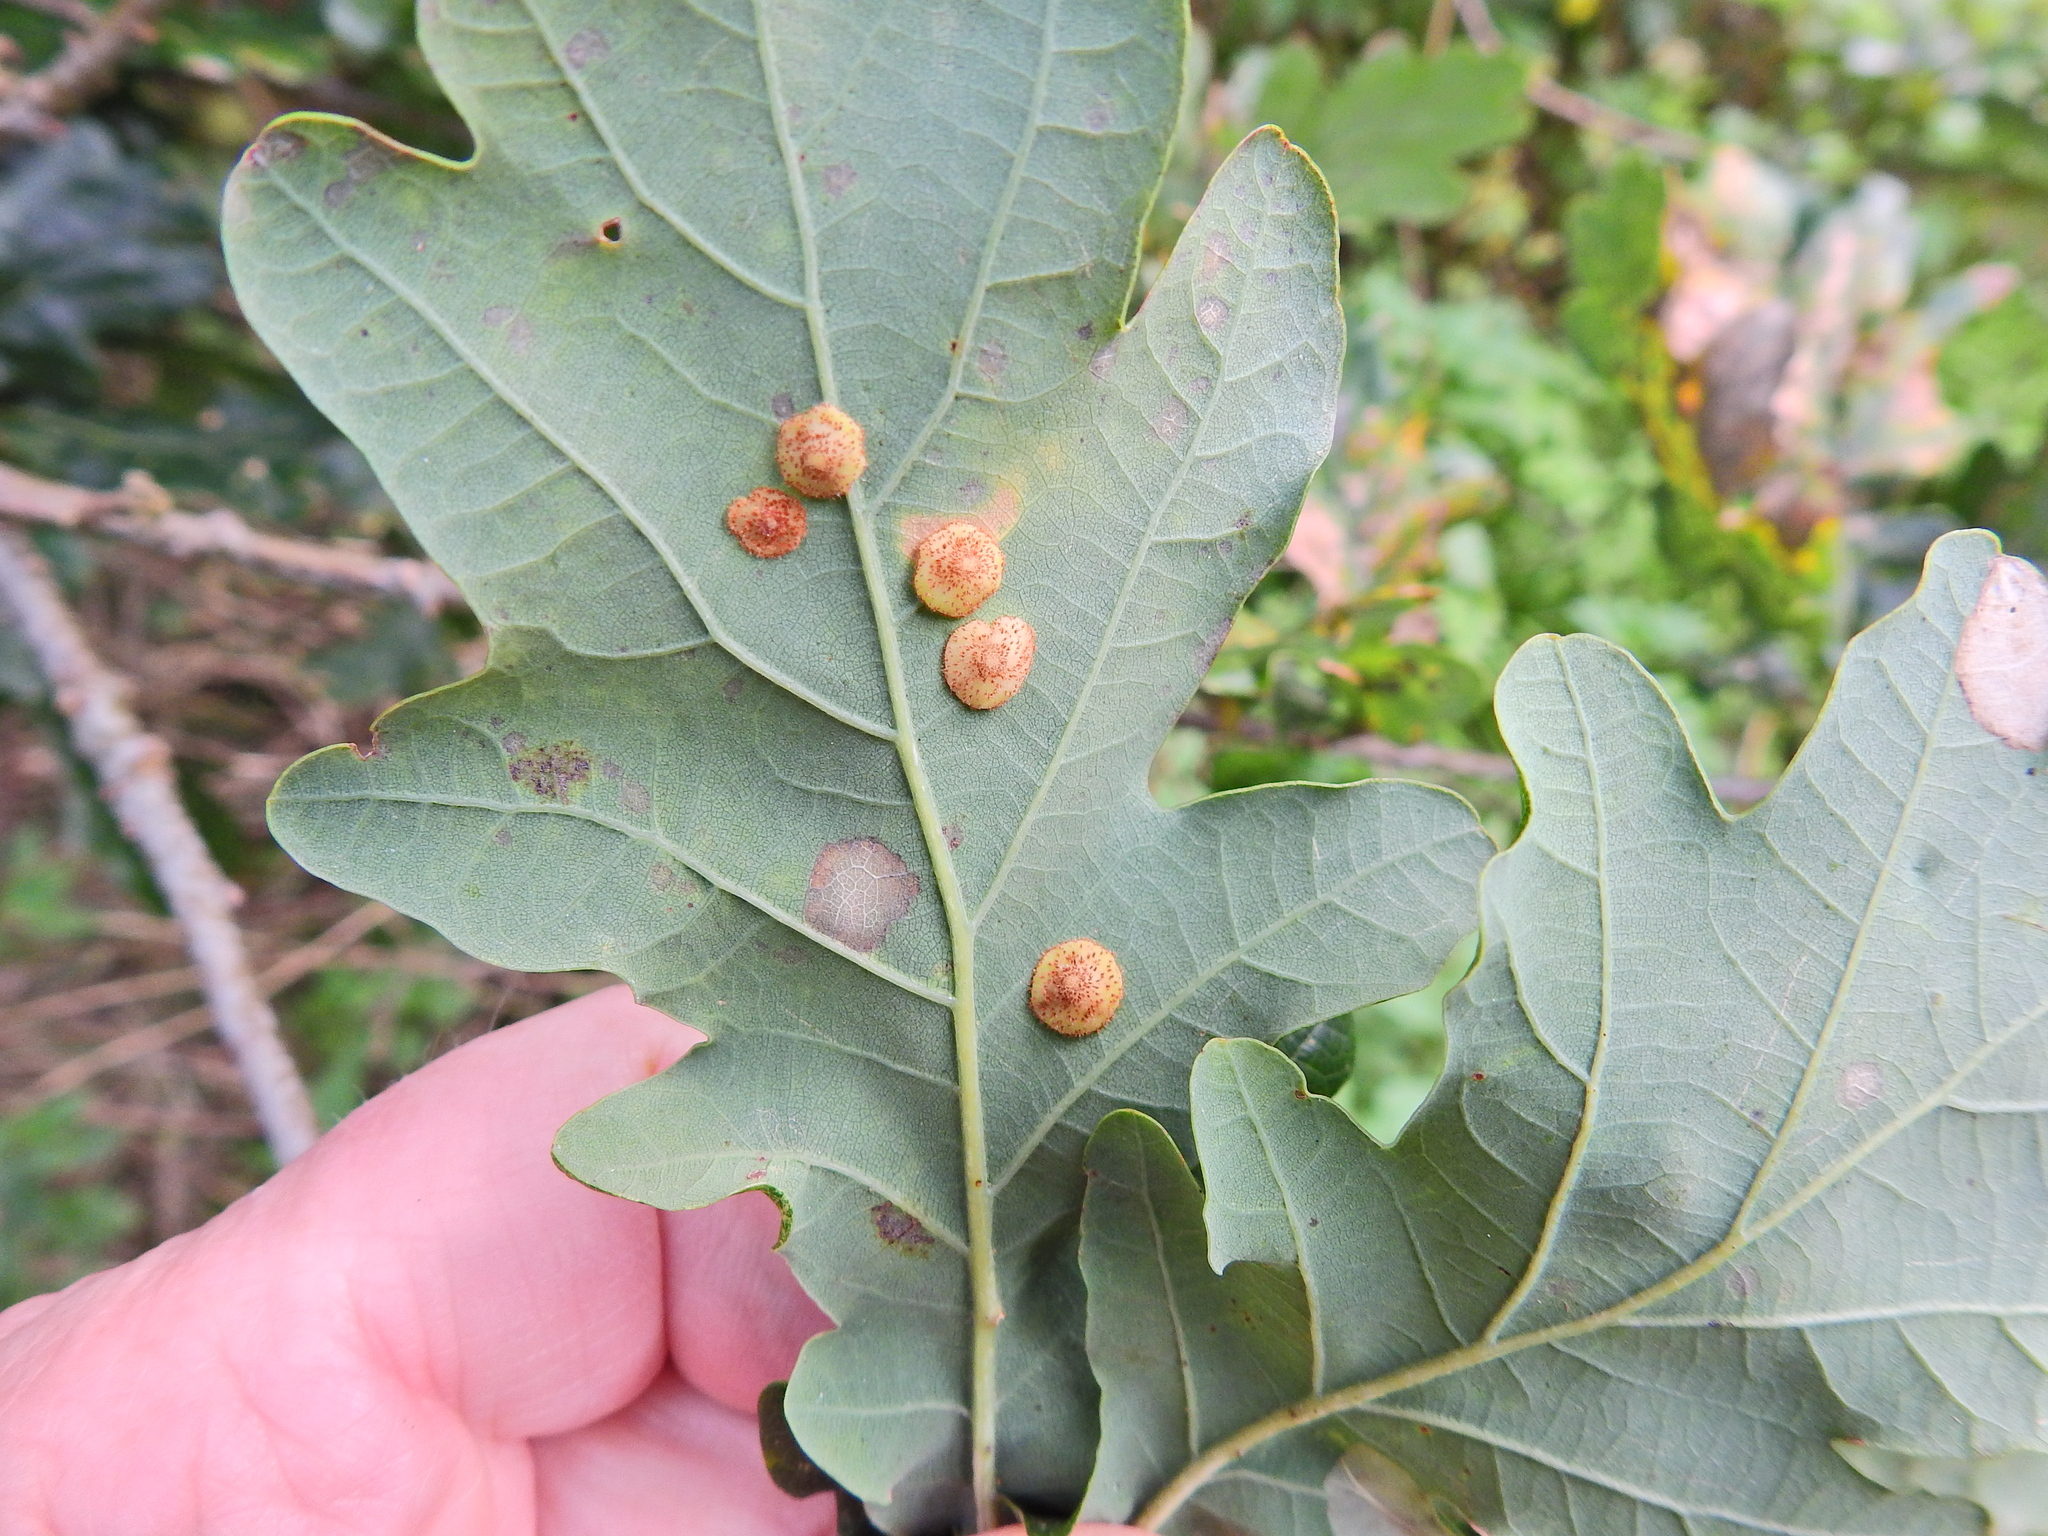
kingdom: Animalia
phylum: Arthropoda
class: Insecta
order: Hymenoptera
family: Cynipidae
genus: Neuroterus
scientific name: Neuroterus quercusbaccarum
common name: Common spangle gall
